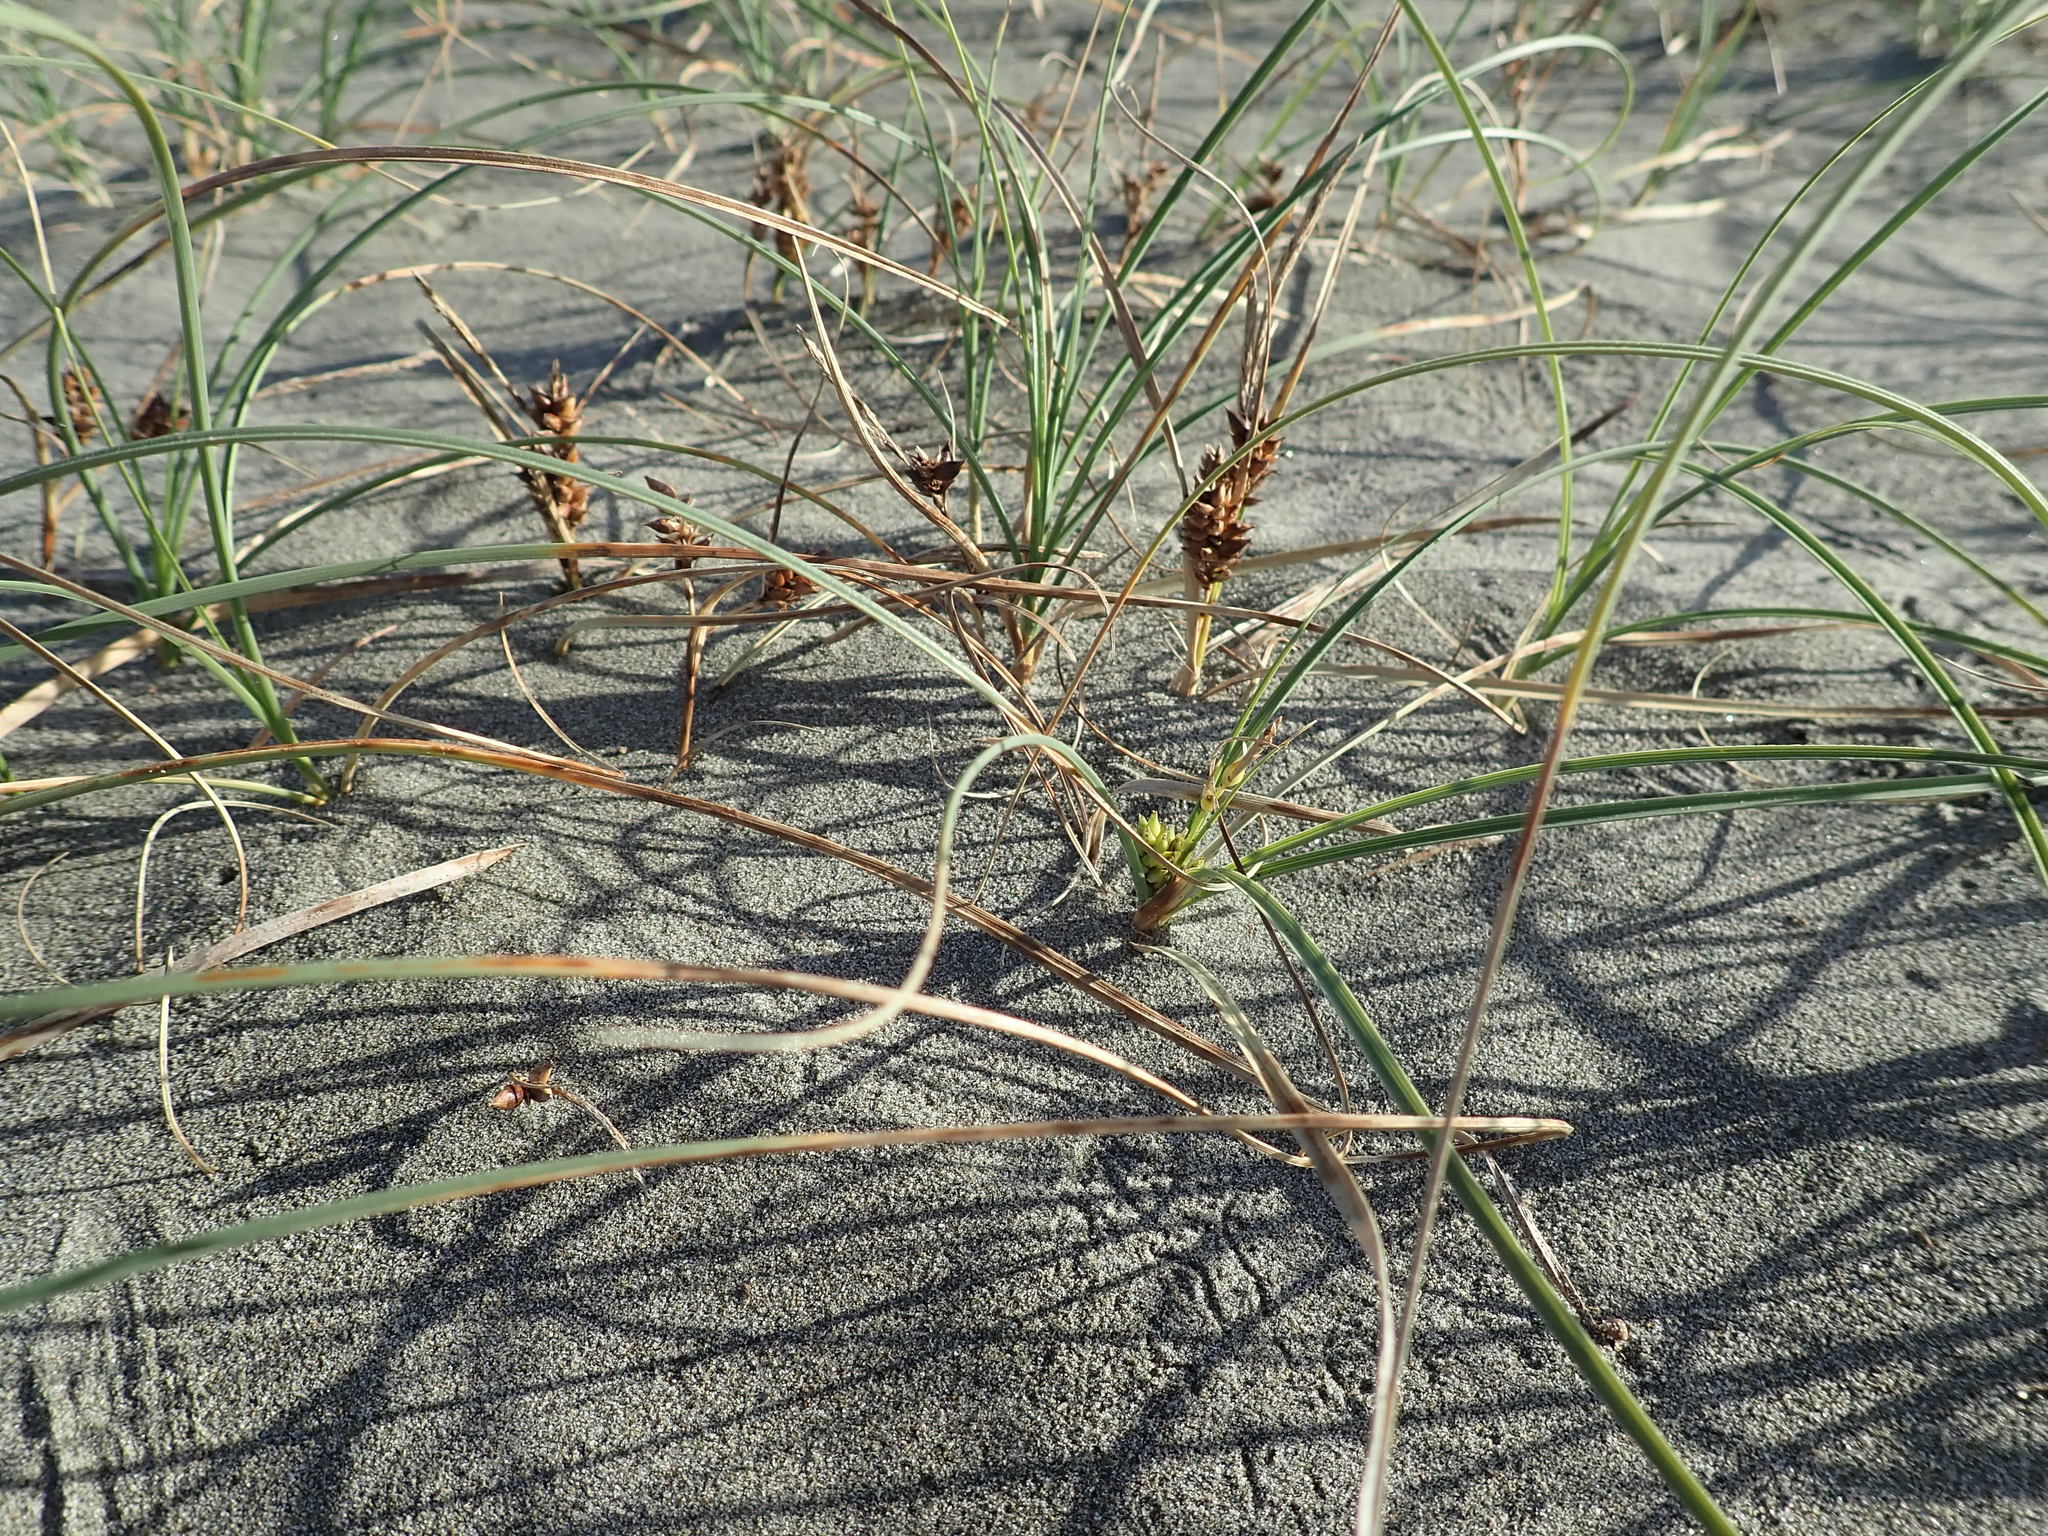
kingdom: Plantae
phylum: Tracheophyta
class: Liliopsida
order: Poales
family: Cyperaceae
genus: Carex
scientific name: Carex pumila
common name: Dwarf sedge
